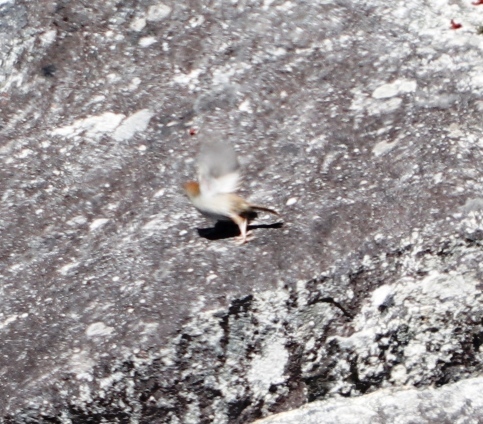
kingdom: Animalia
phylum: Chordata
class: Aves
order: Passeriformes
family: Cisticolidae
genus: Cisticola
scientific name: Cisticola fulvicapilla
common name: Neddicky
